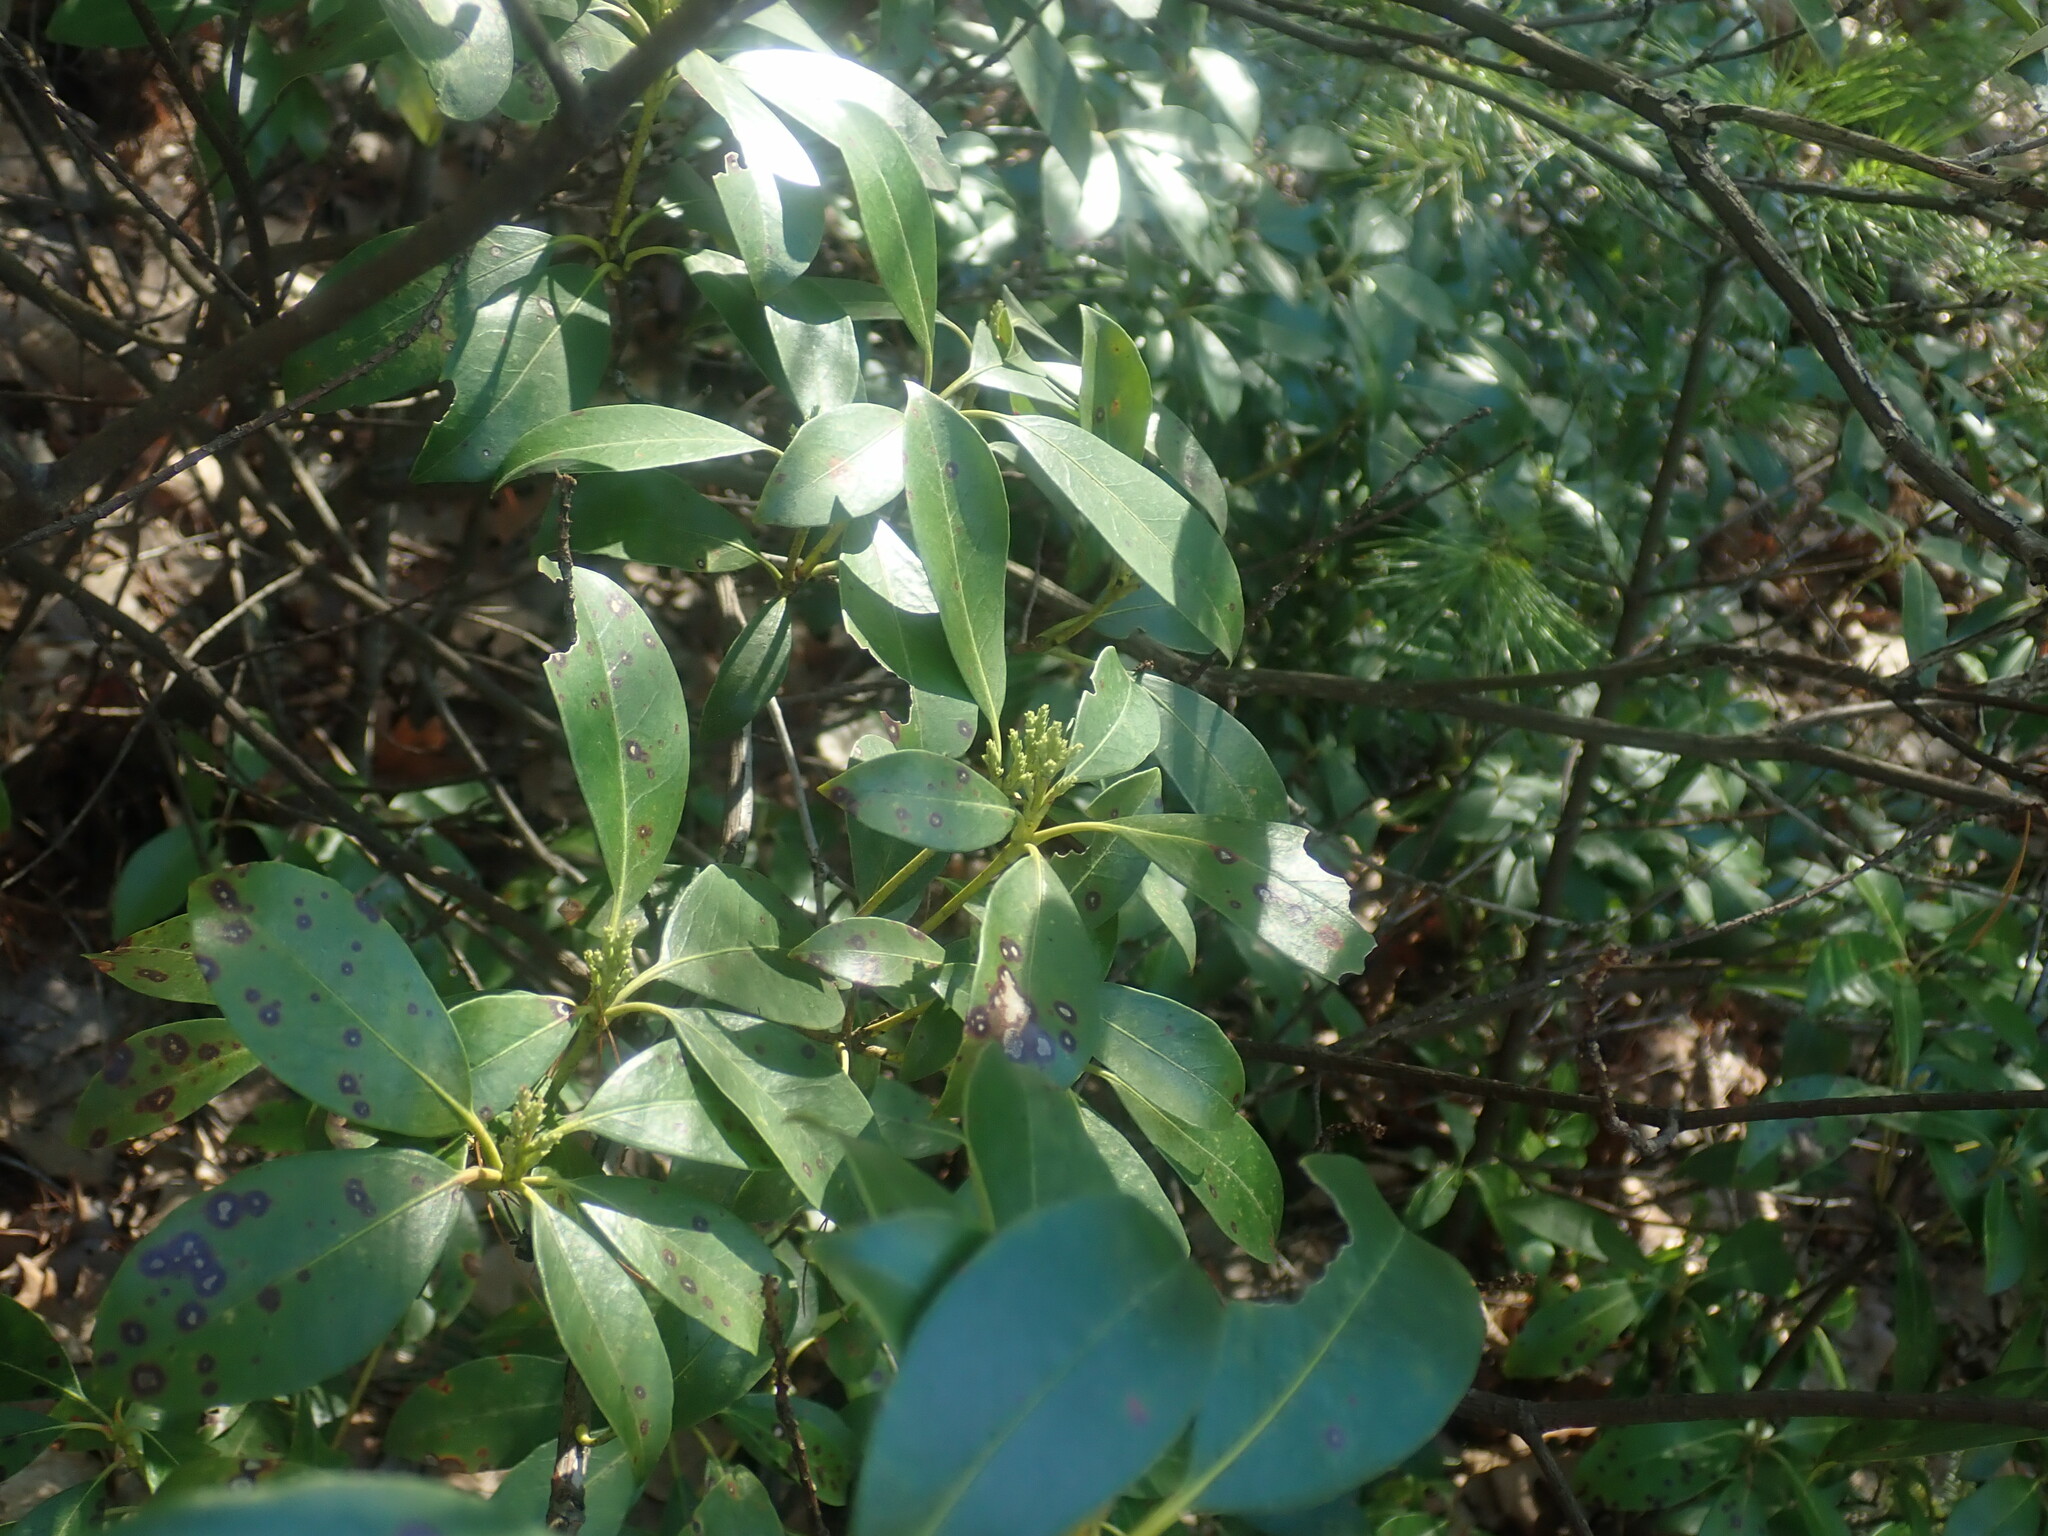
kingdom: Plantae
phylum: Tracheophyta
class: Magnoliopsida
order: Ericales
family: Ericaceae
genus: Kalmia
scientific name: Kalmia latifolia
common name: Mountain-laurel
